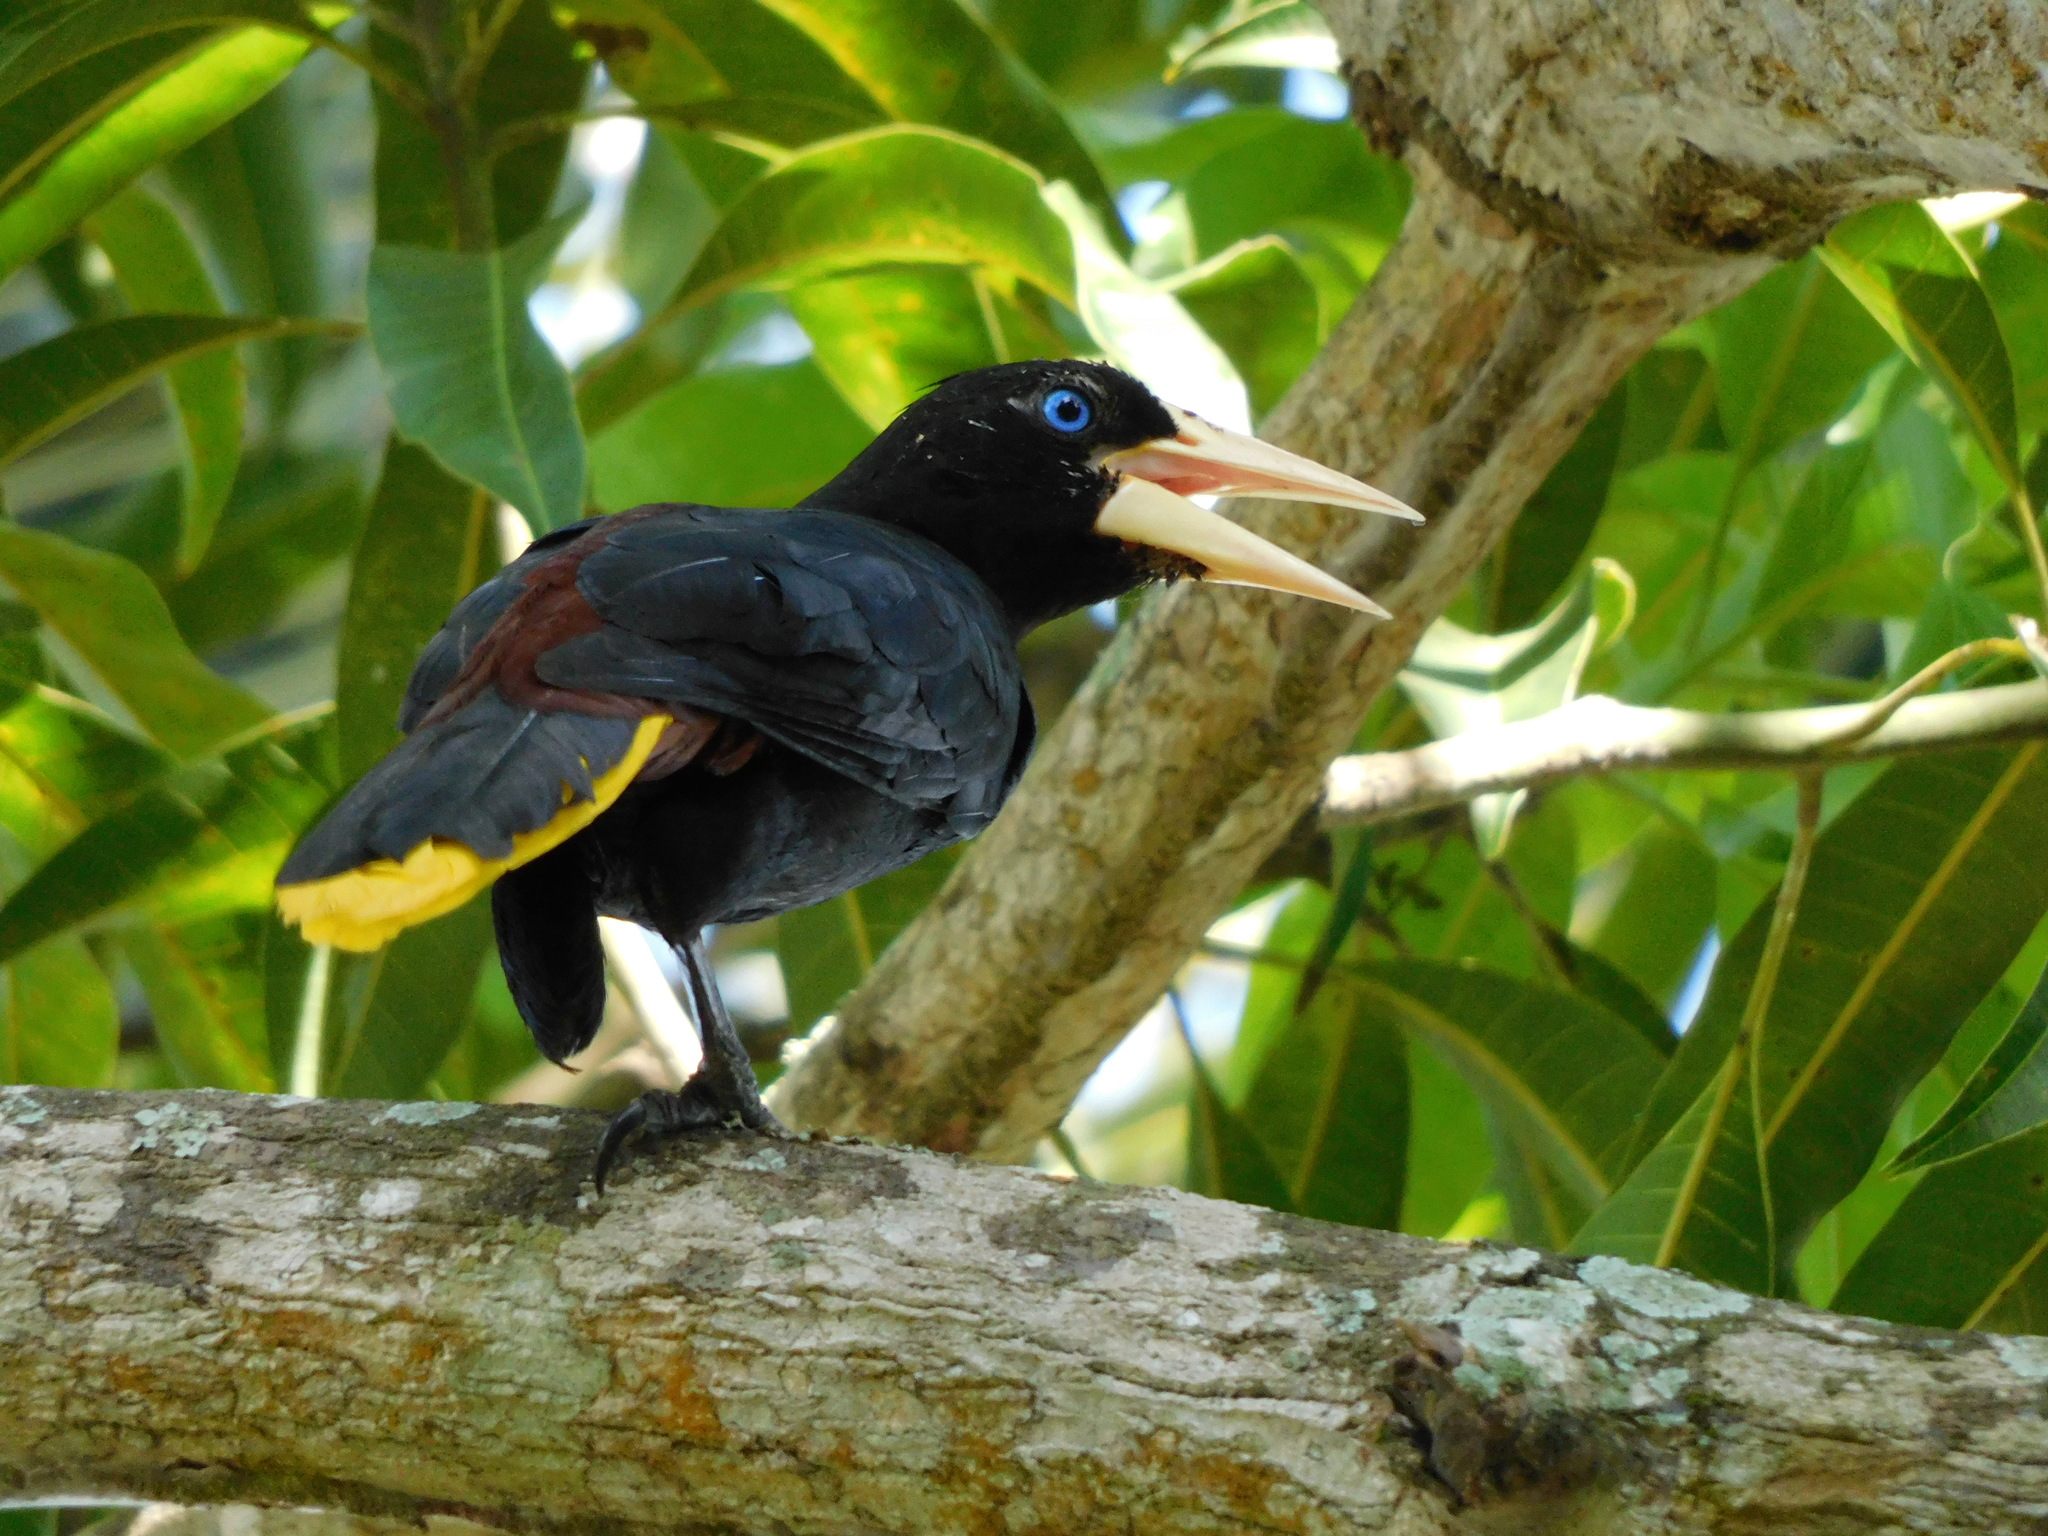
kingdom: Animalia
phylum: Chordata
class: Aves
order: Passeriformes
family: Icteridae
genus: Psarocolius
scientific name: Psarocolius decumanus
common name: Crested oropendola
